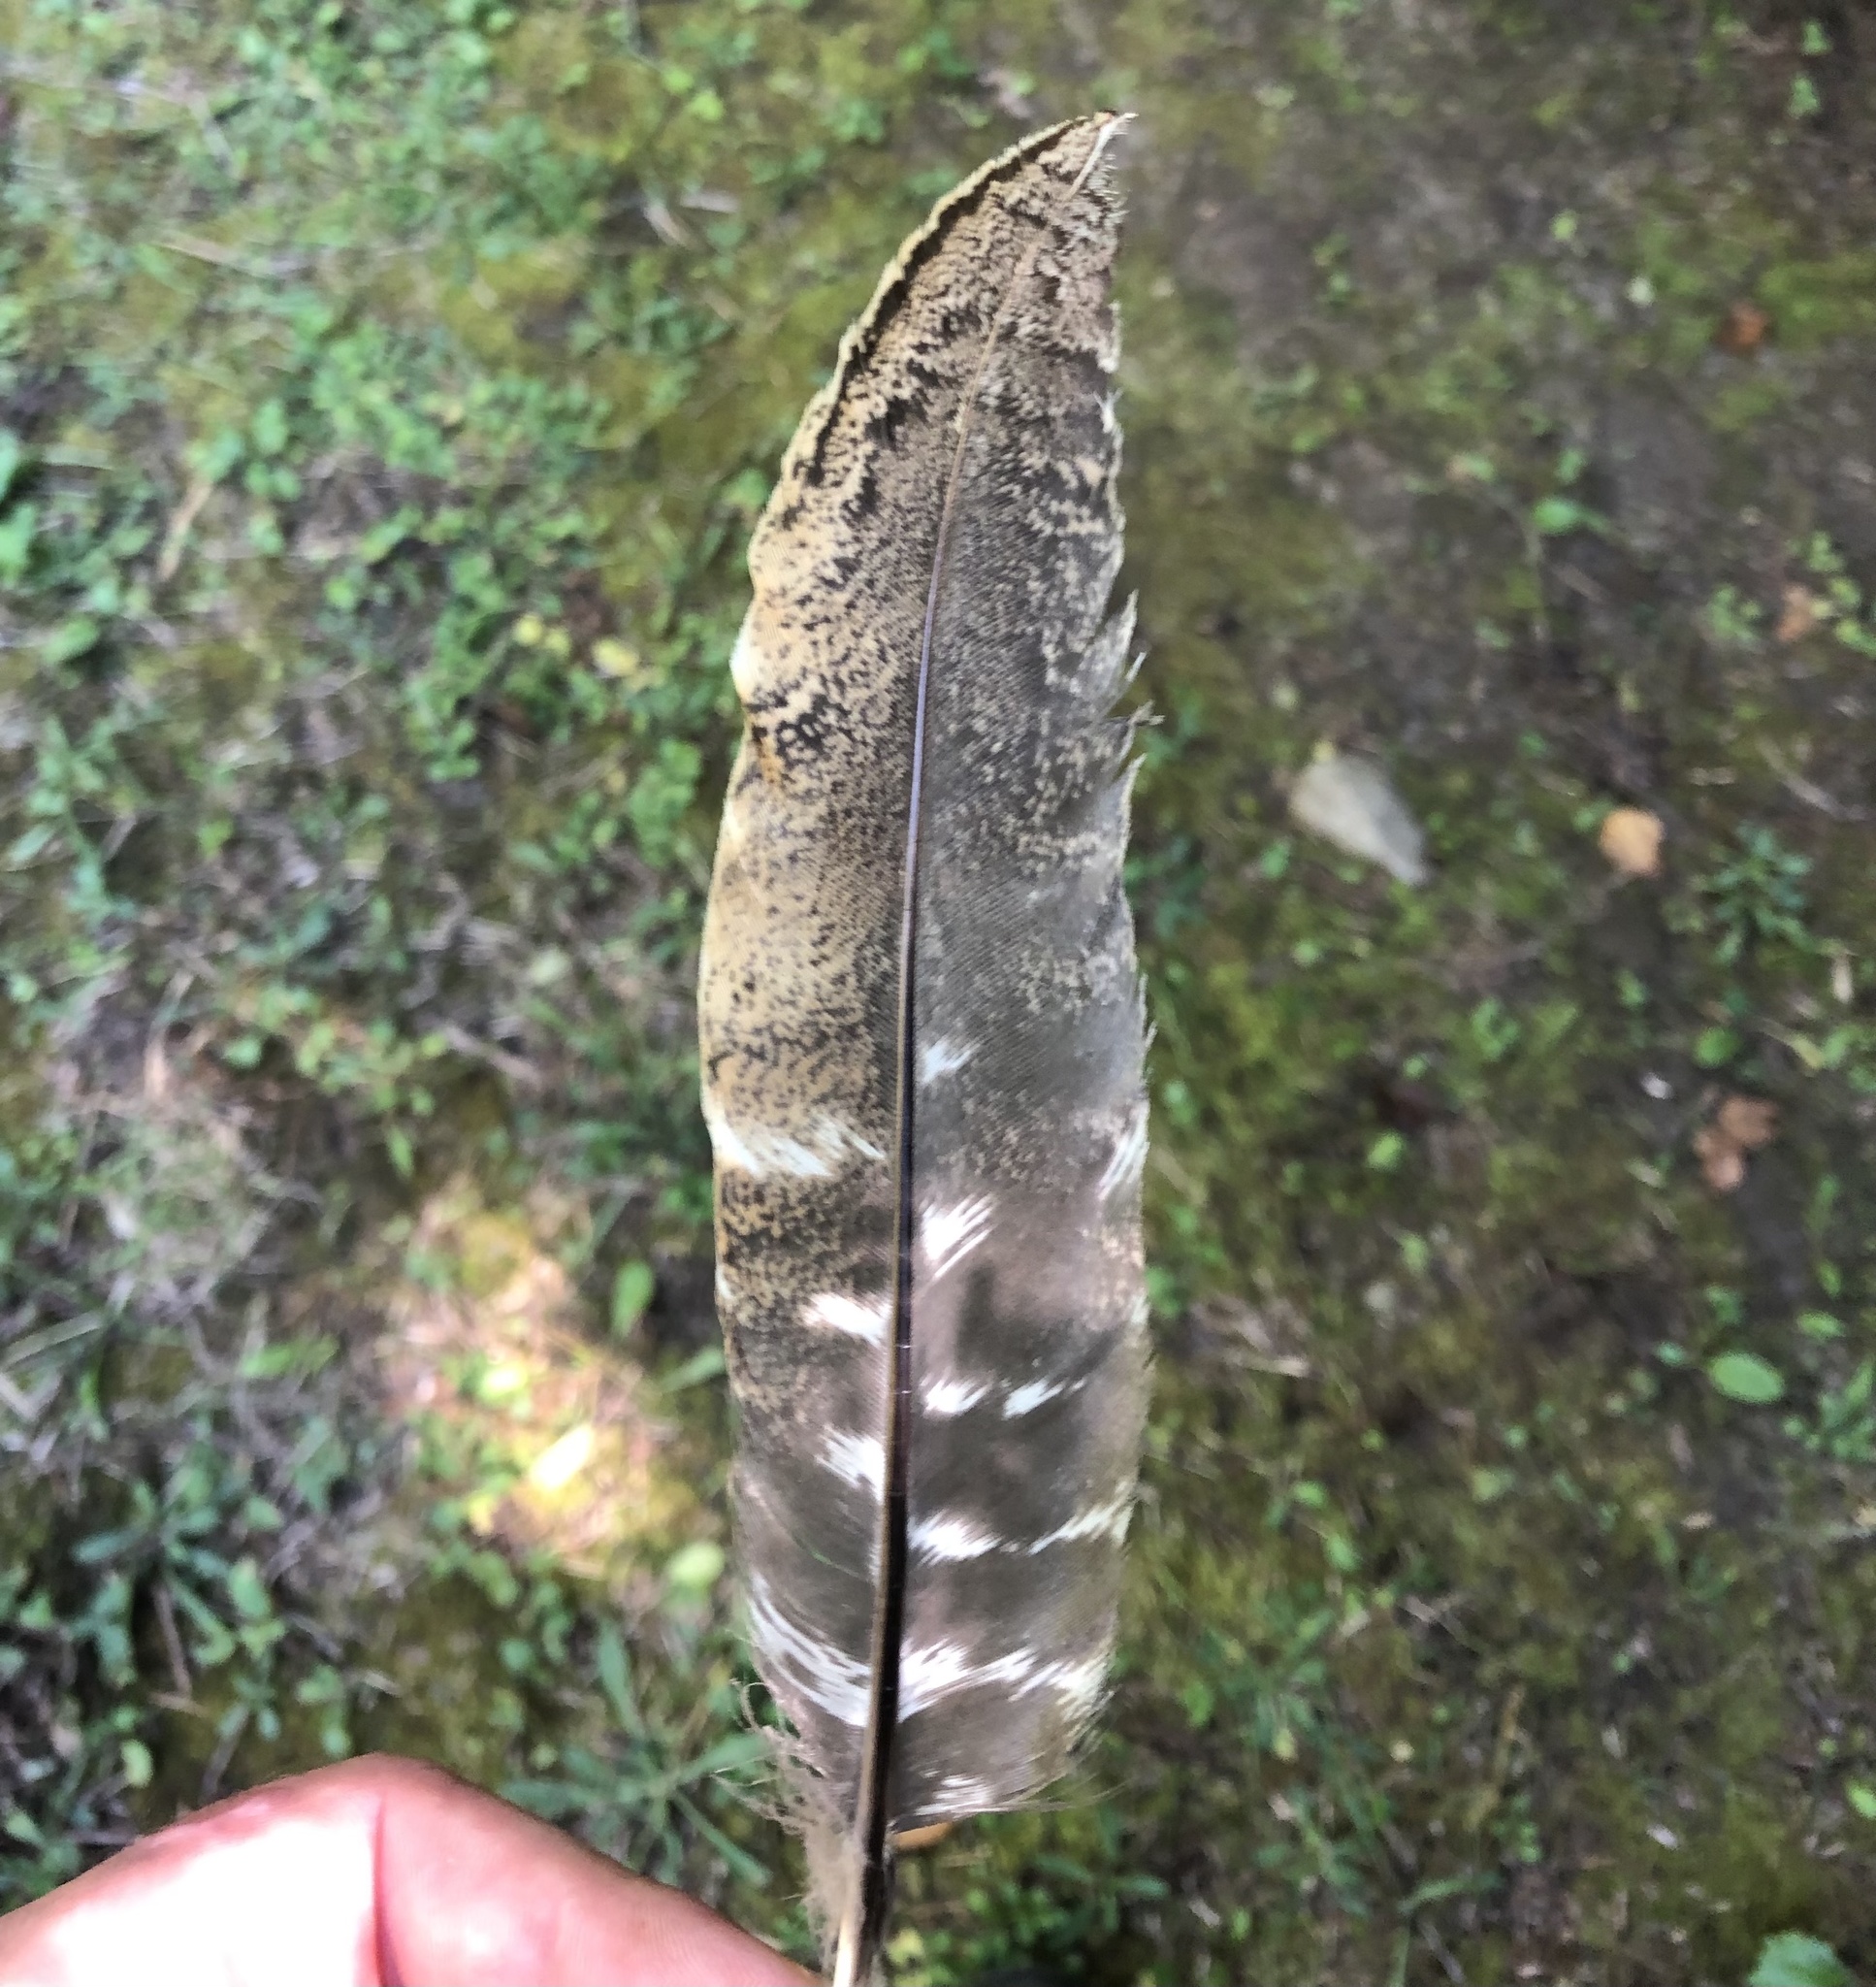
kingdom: Animalia
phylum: Chordata
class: Aves
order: Galliformes
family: Phasianidae
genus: Meleagris
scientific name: Meleagris gallopavo
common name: Wild turkey
